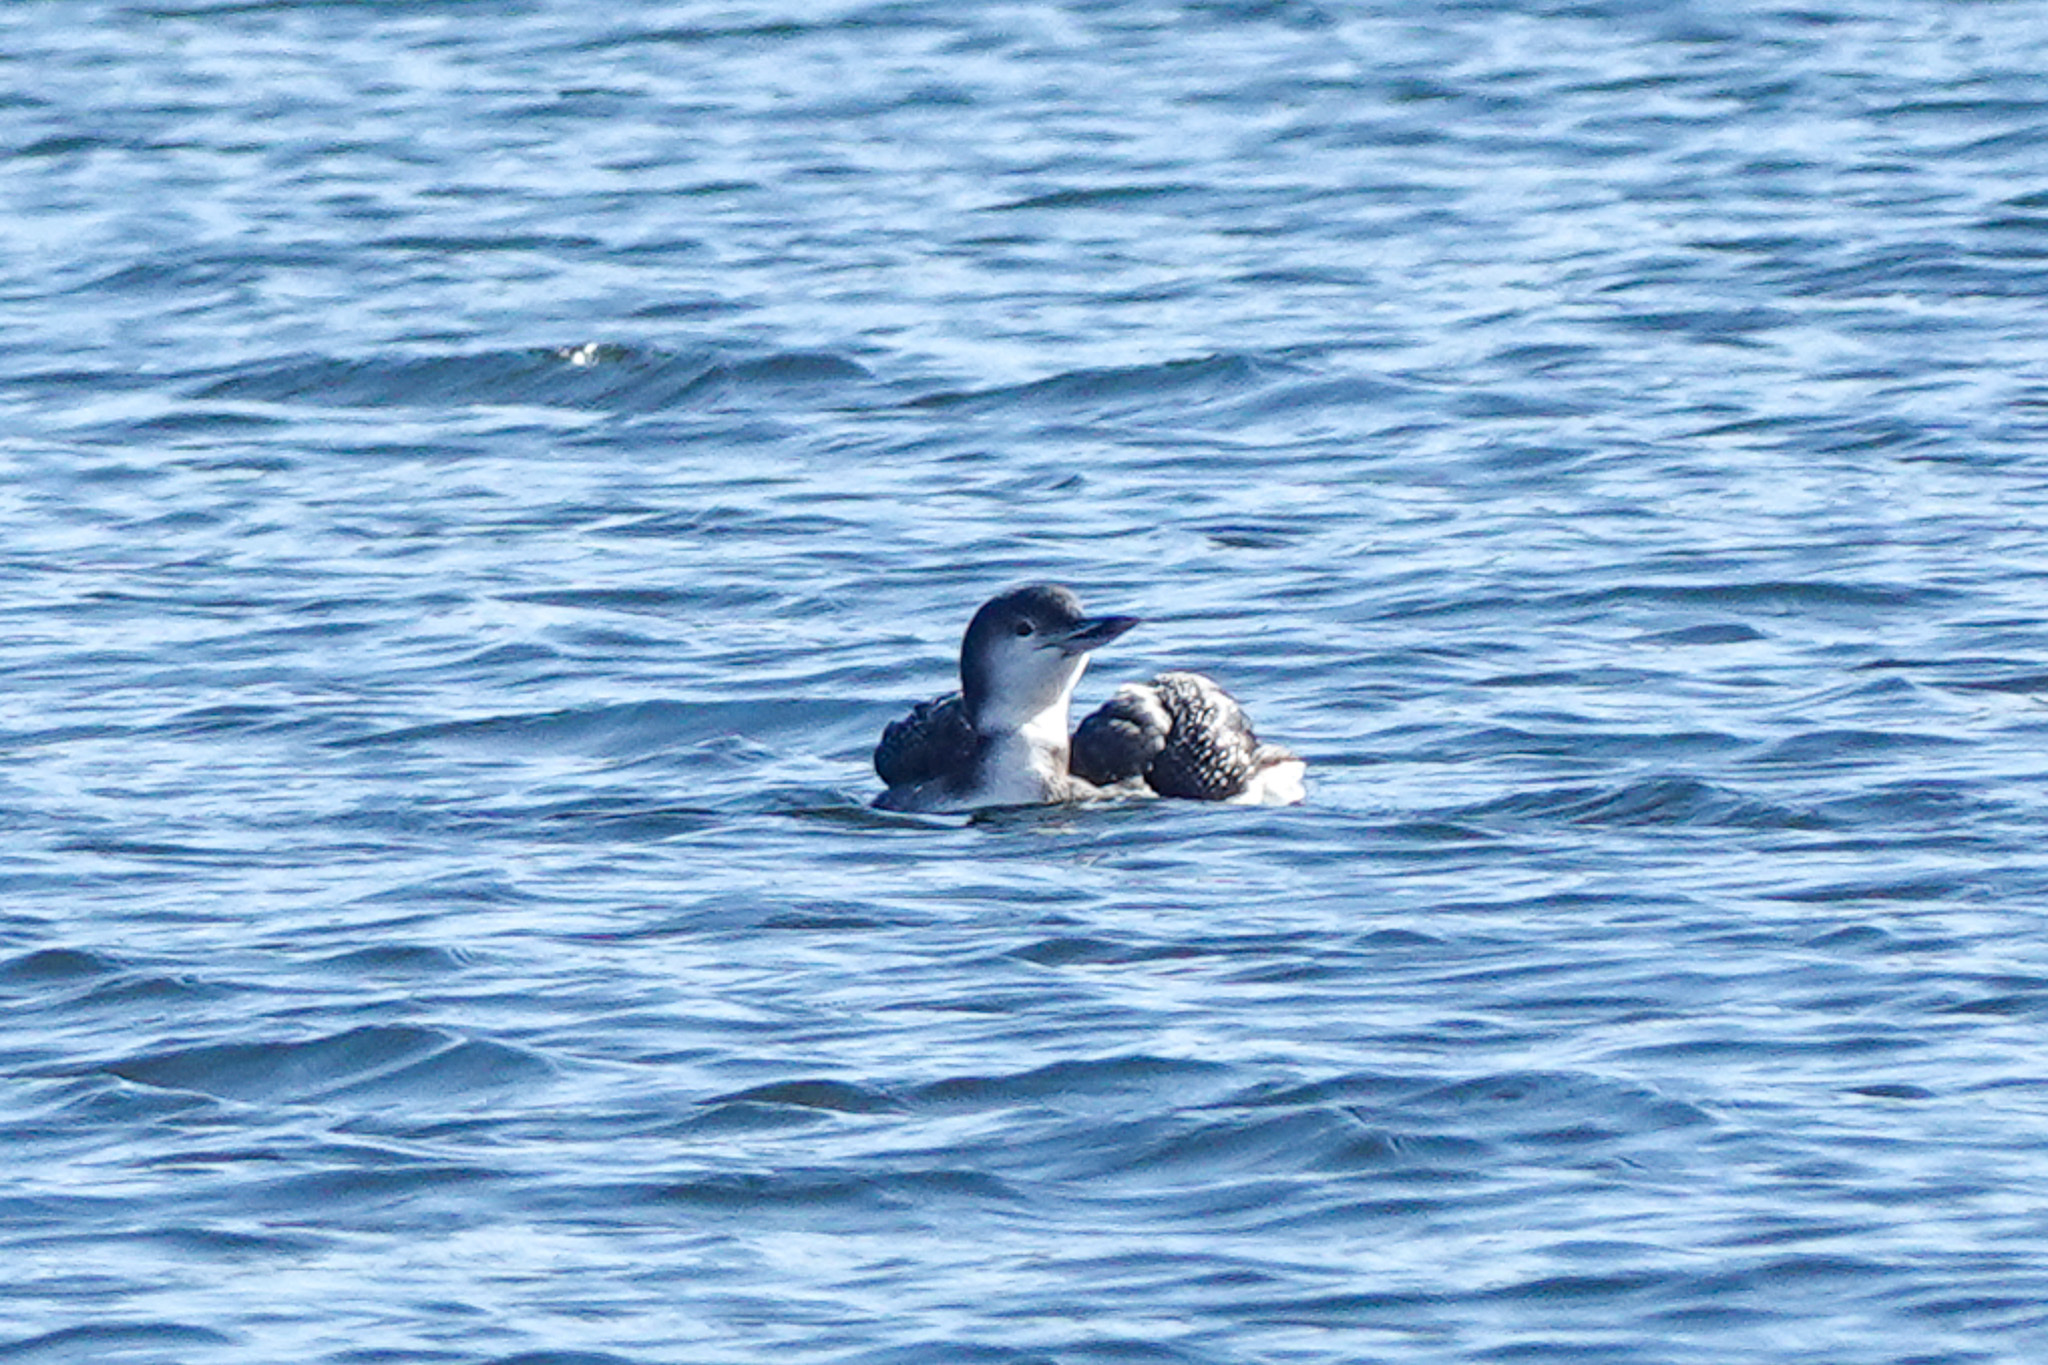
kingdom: Animalia
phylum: Chordata
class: Aves
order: Gaviiformes
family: Gaviidae
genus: Gavia
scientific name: Gavia immer
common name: Common loon
